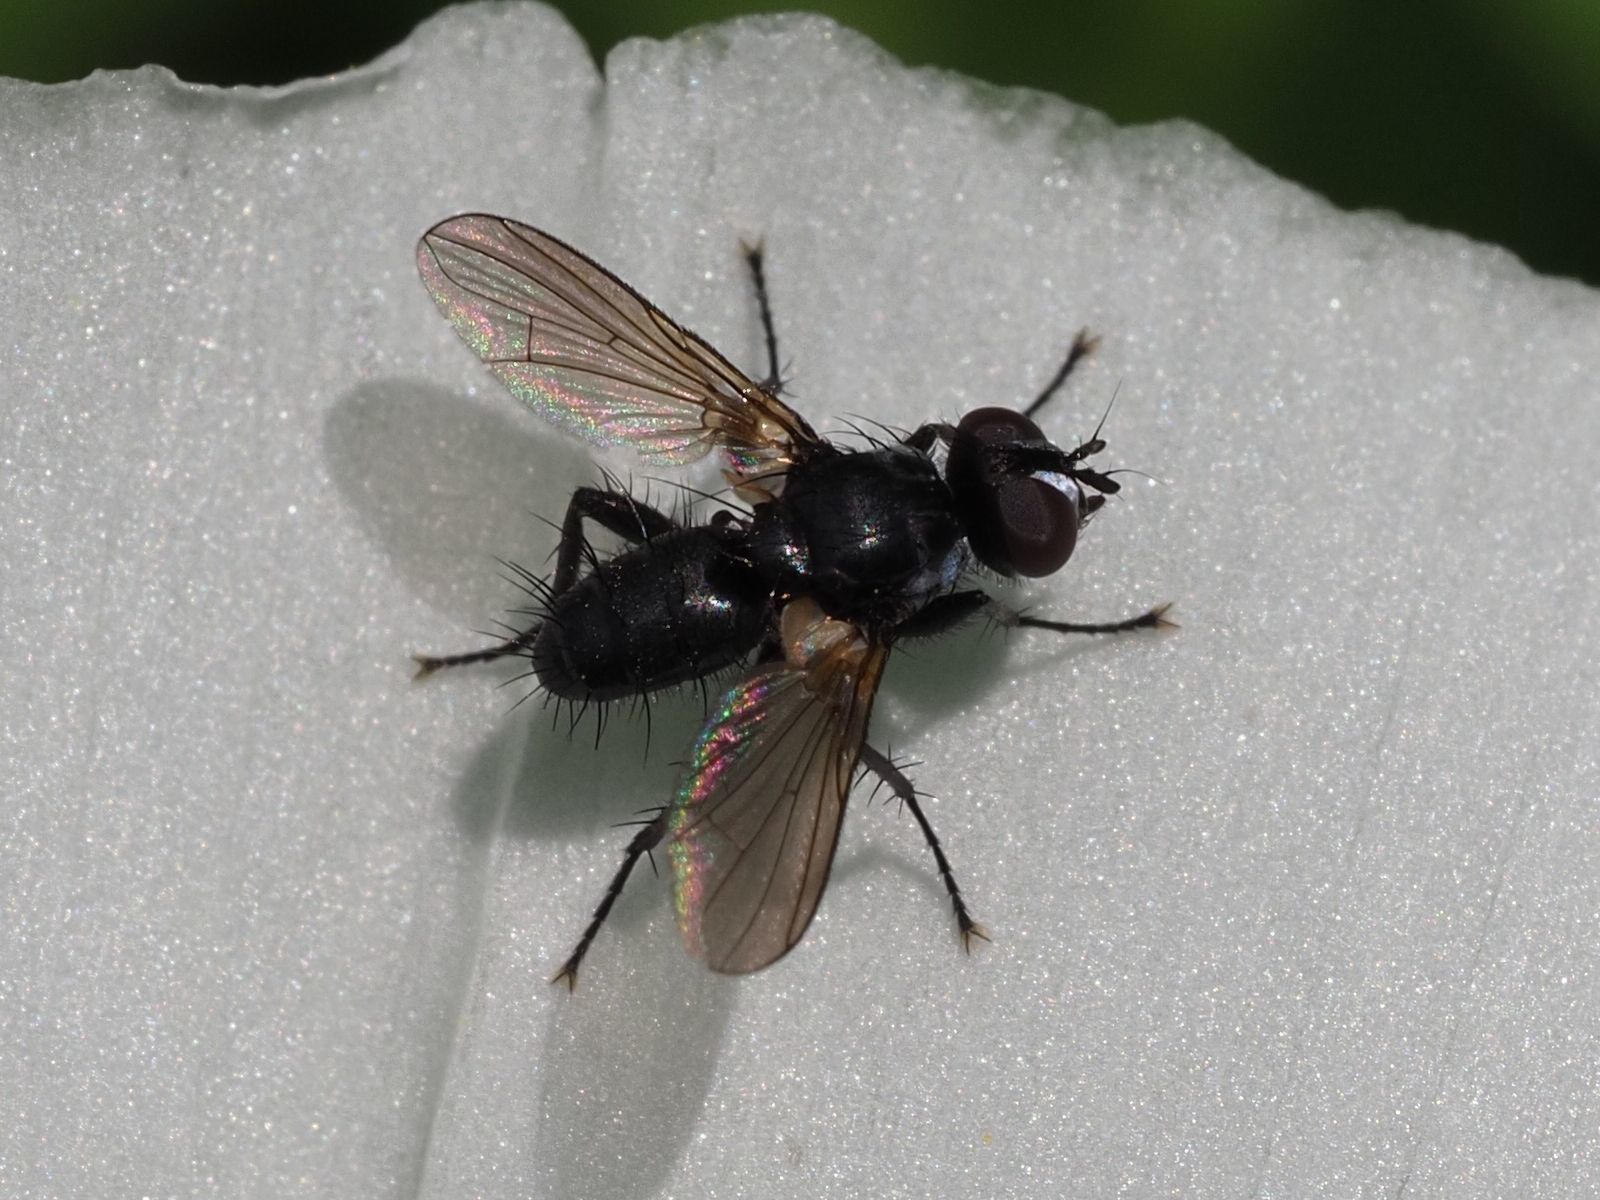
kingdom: Animalia
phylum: Arthropoda
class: Insecta
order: Diptera
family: Tachinidae
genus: Phania
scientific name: Phania funesta
